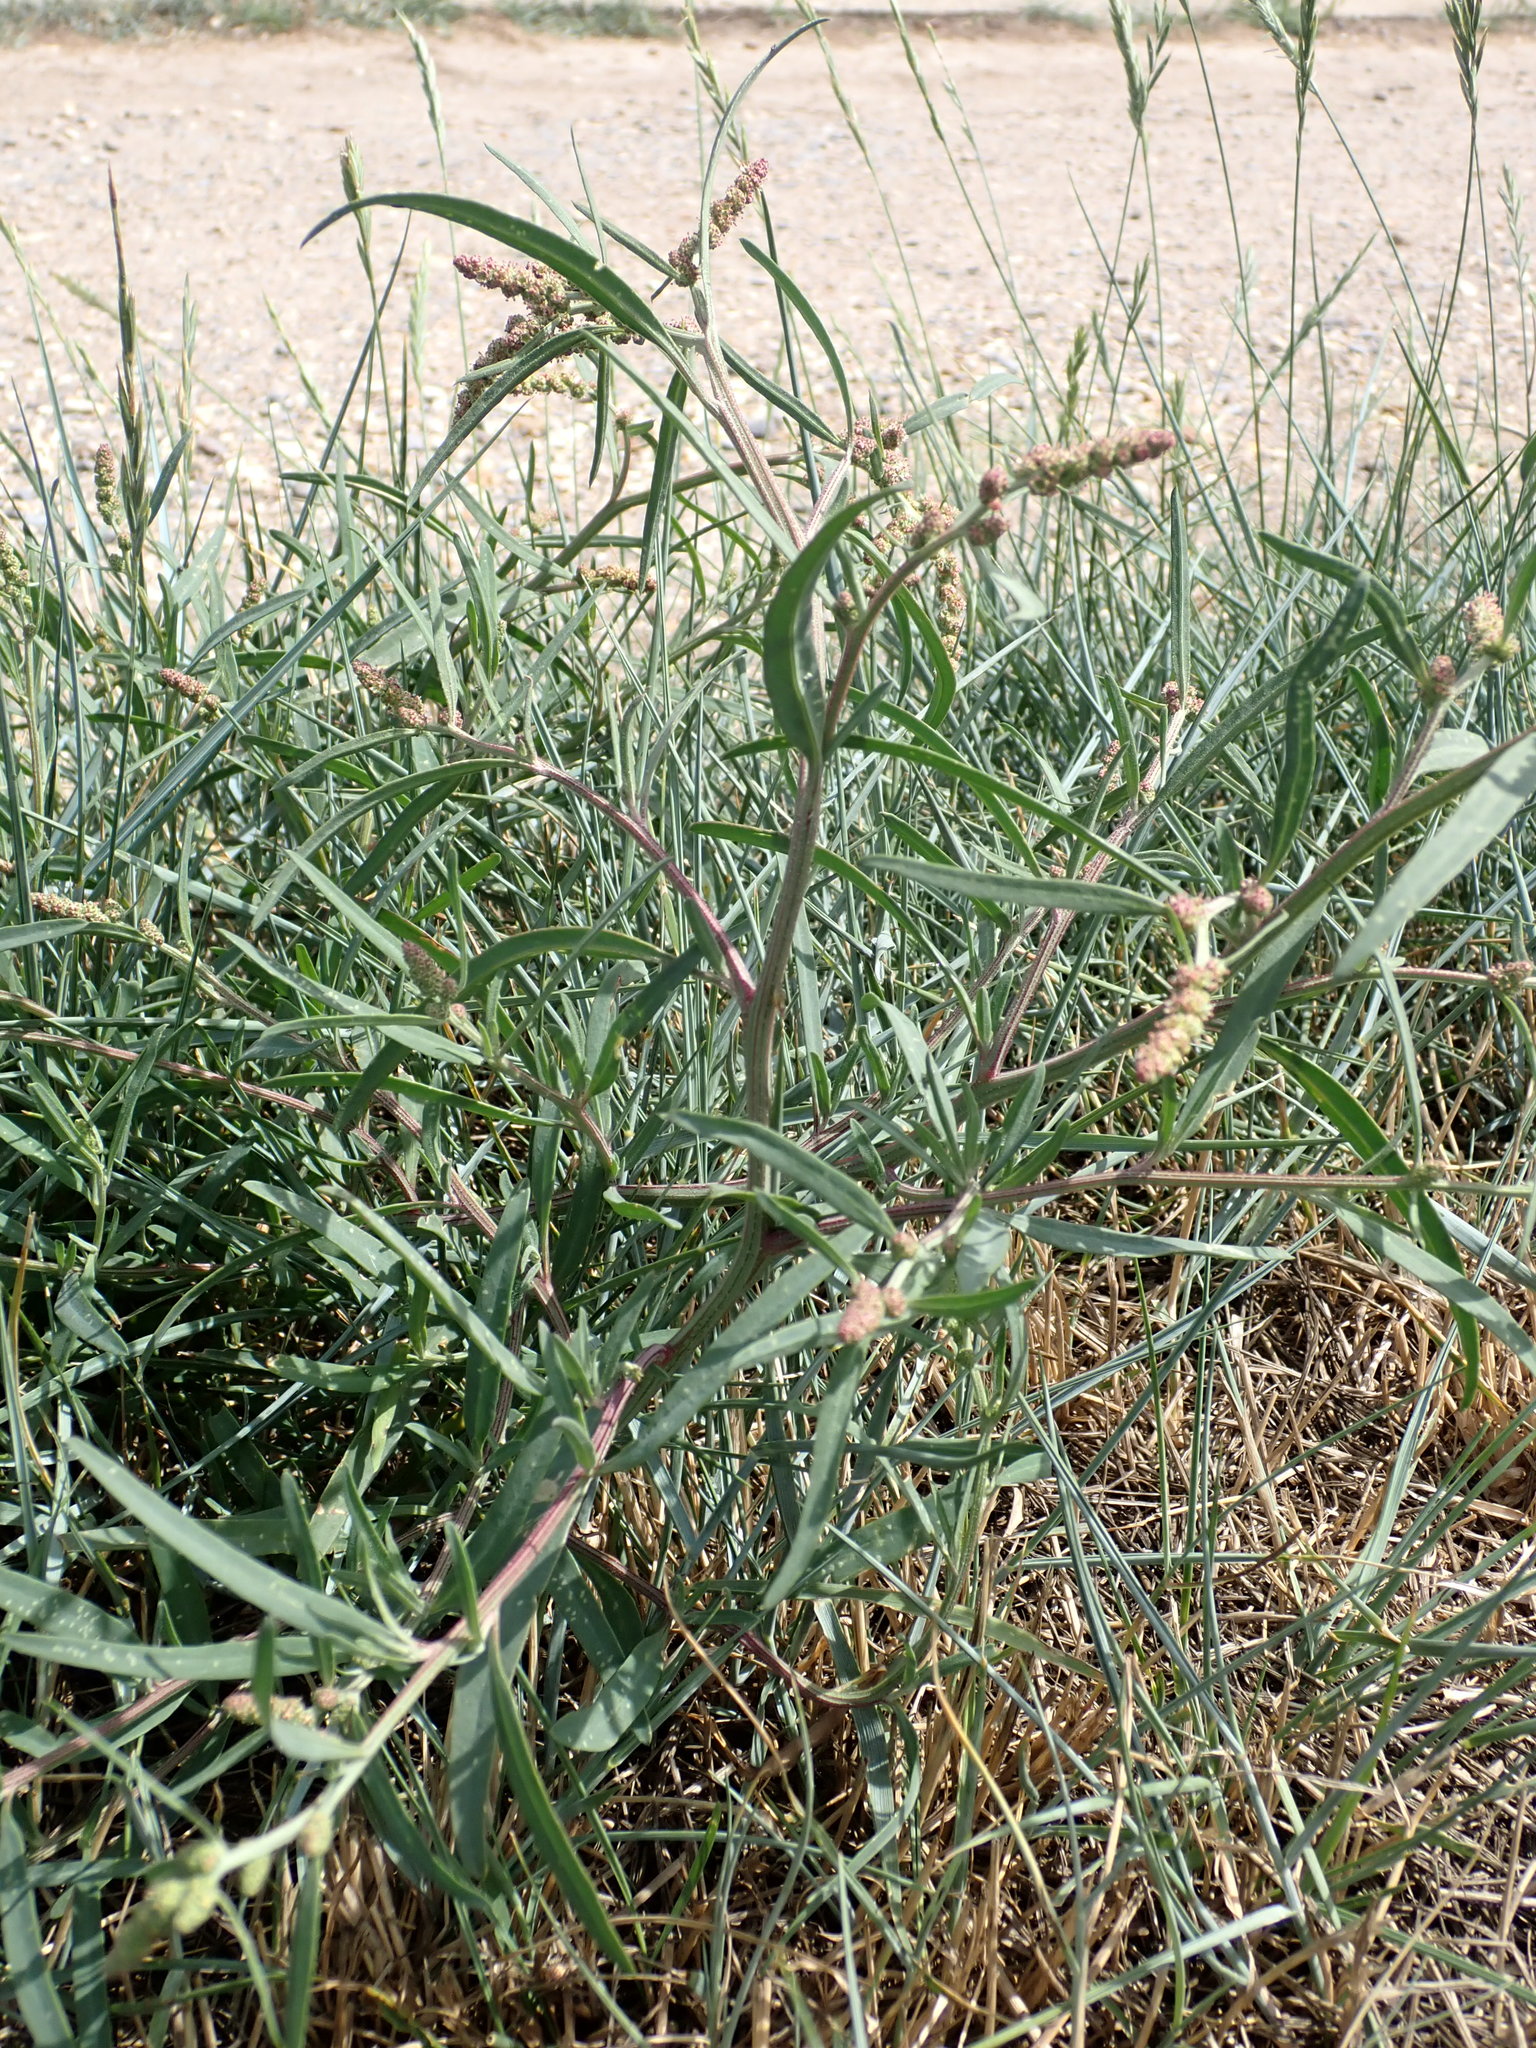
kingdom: Plantae
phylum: Tracheophyta
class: Magnoliopsida
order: Caryophyllales
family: Amaranthaceae
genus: Atriplex
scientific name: Atriplex littoralis
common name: Grass-leaved orache
